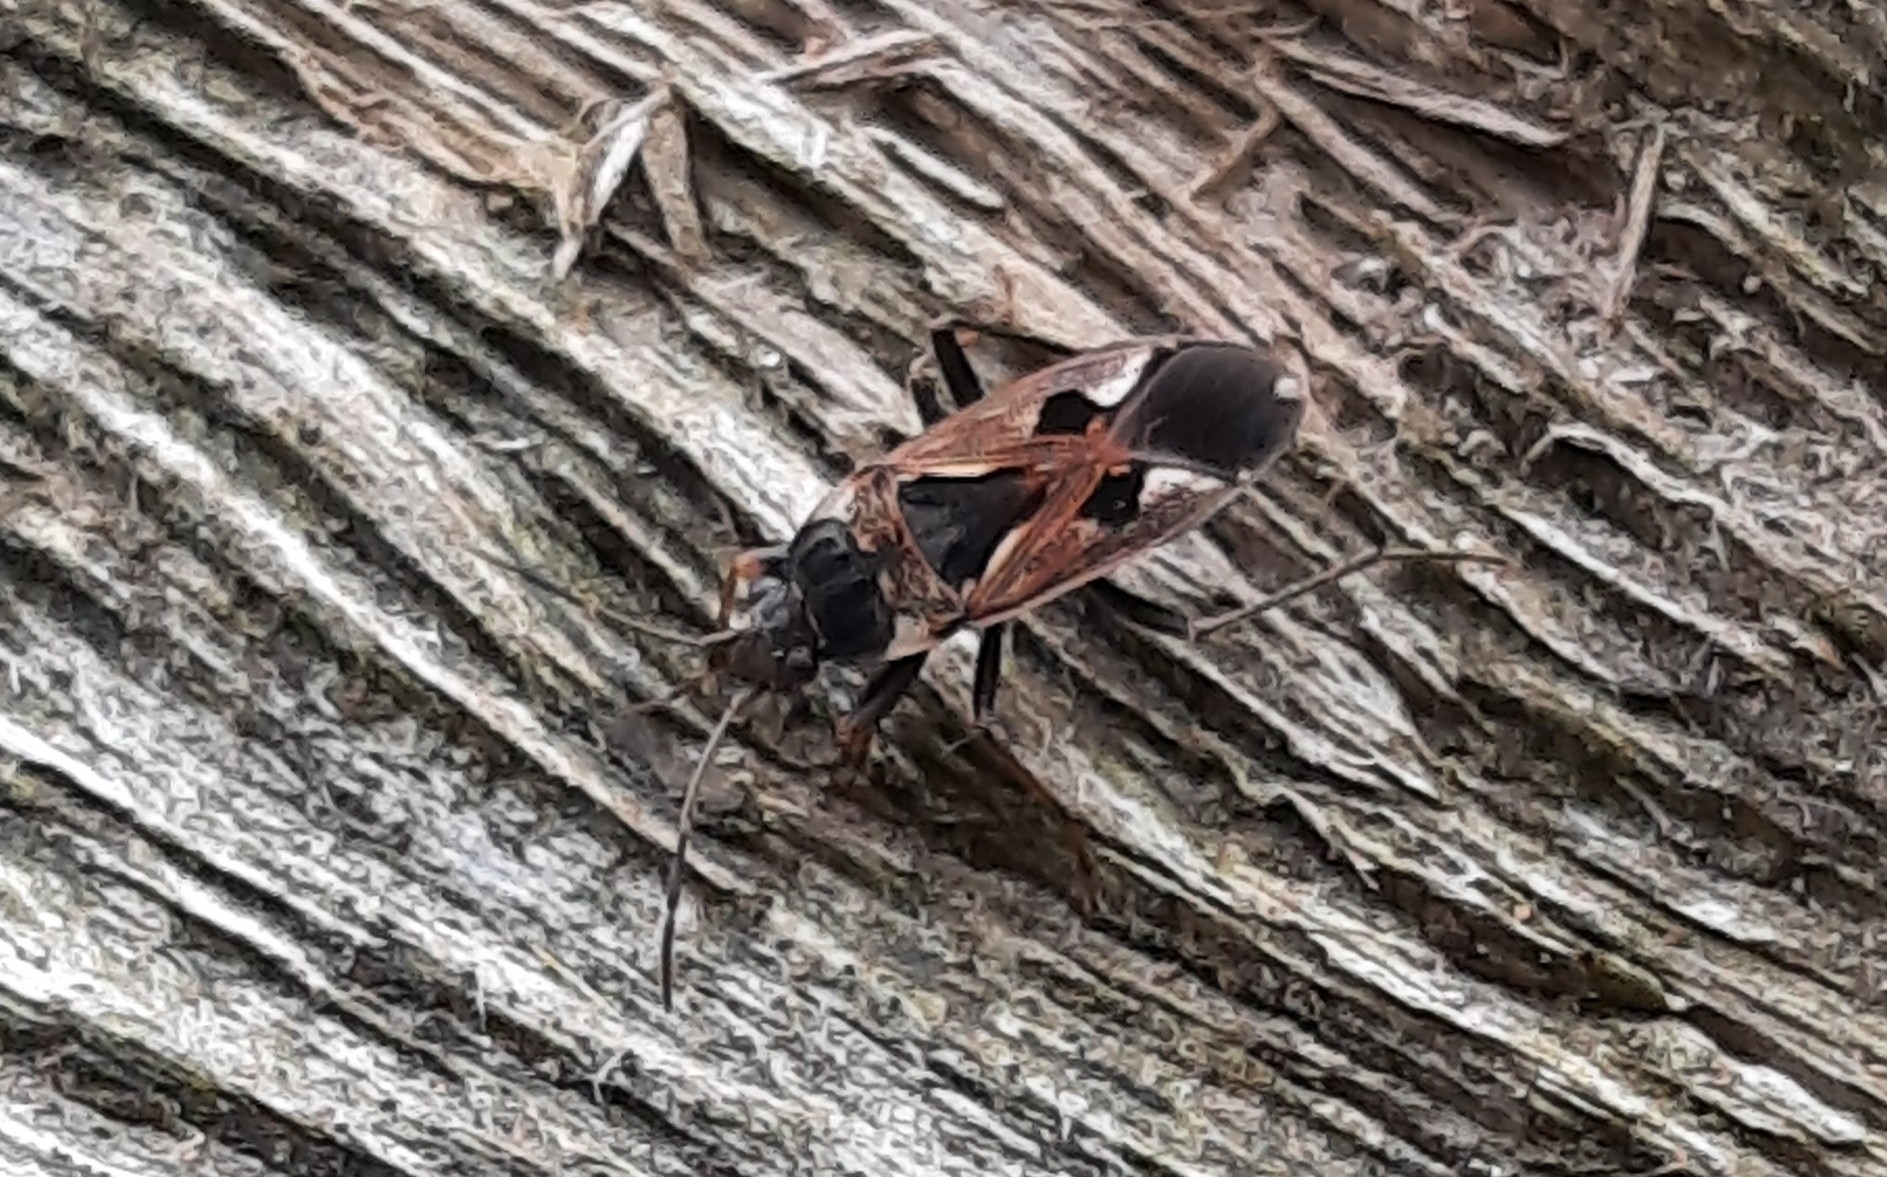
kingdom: Animalia
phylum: Arthropoda
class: Insecta
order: Hemiptera
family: Rhyparochromidae
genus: Rhyparochromus
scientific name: Rhyparochromus vulgaris
